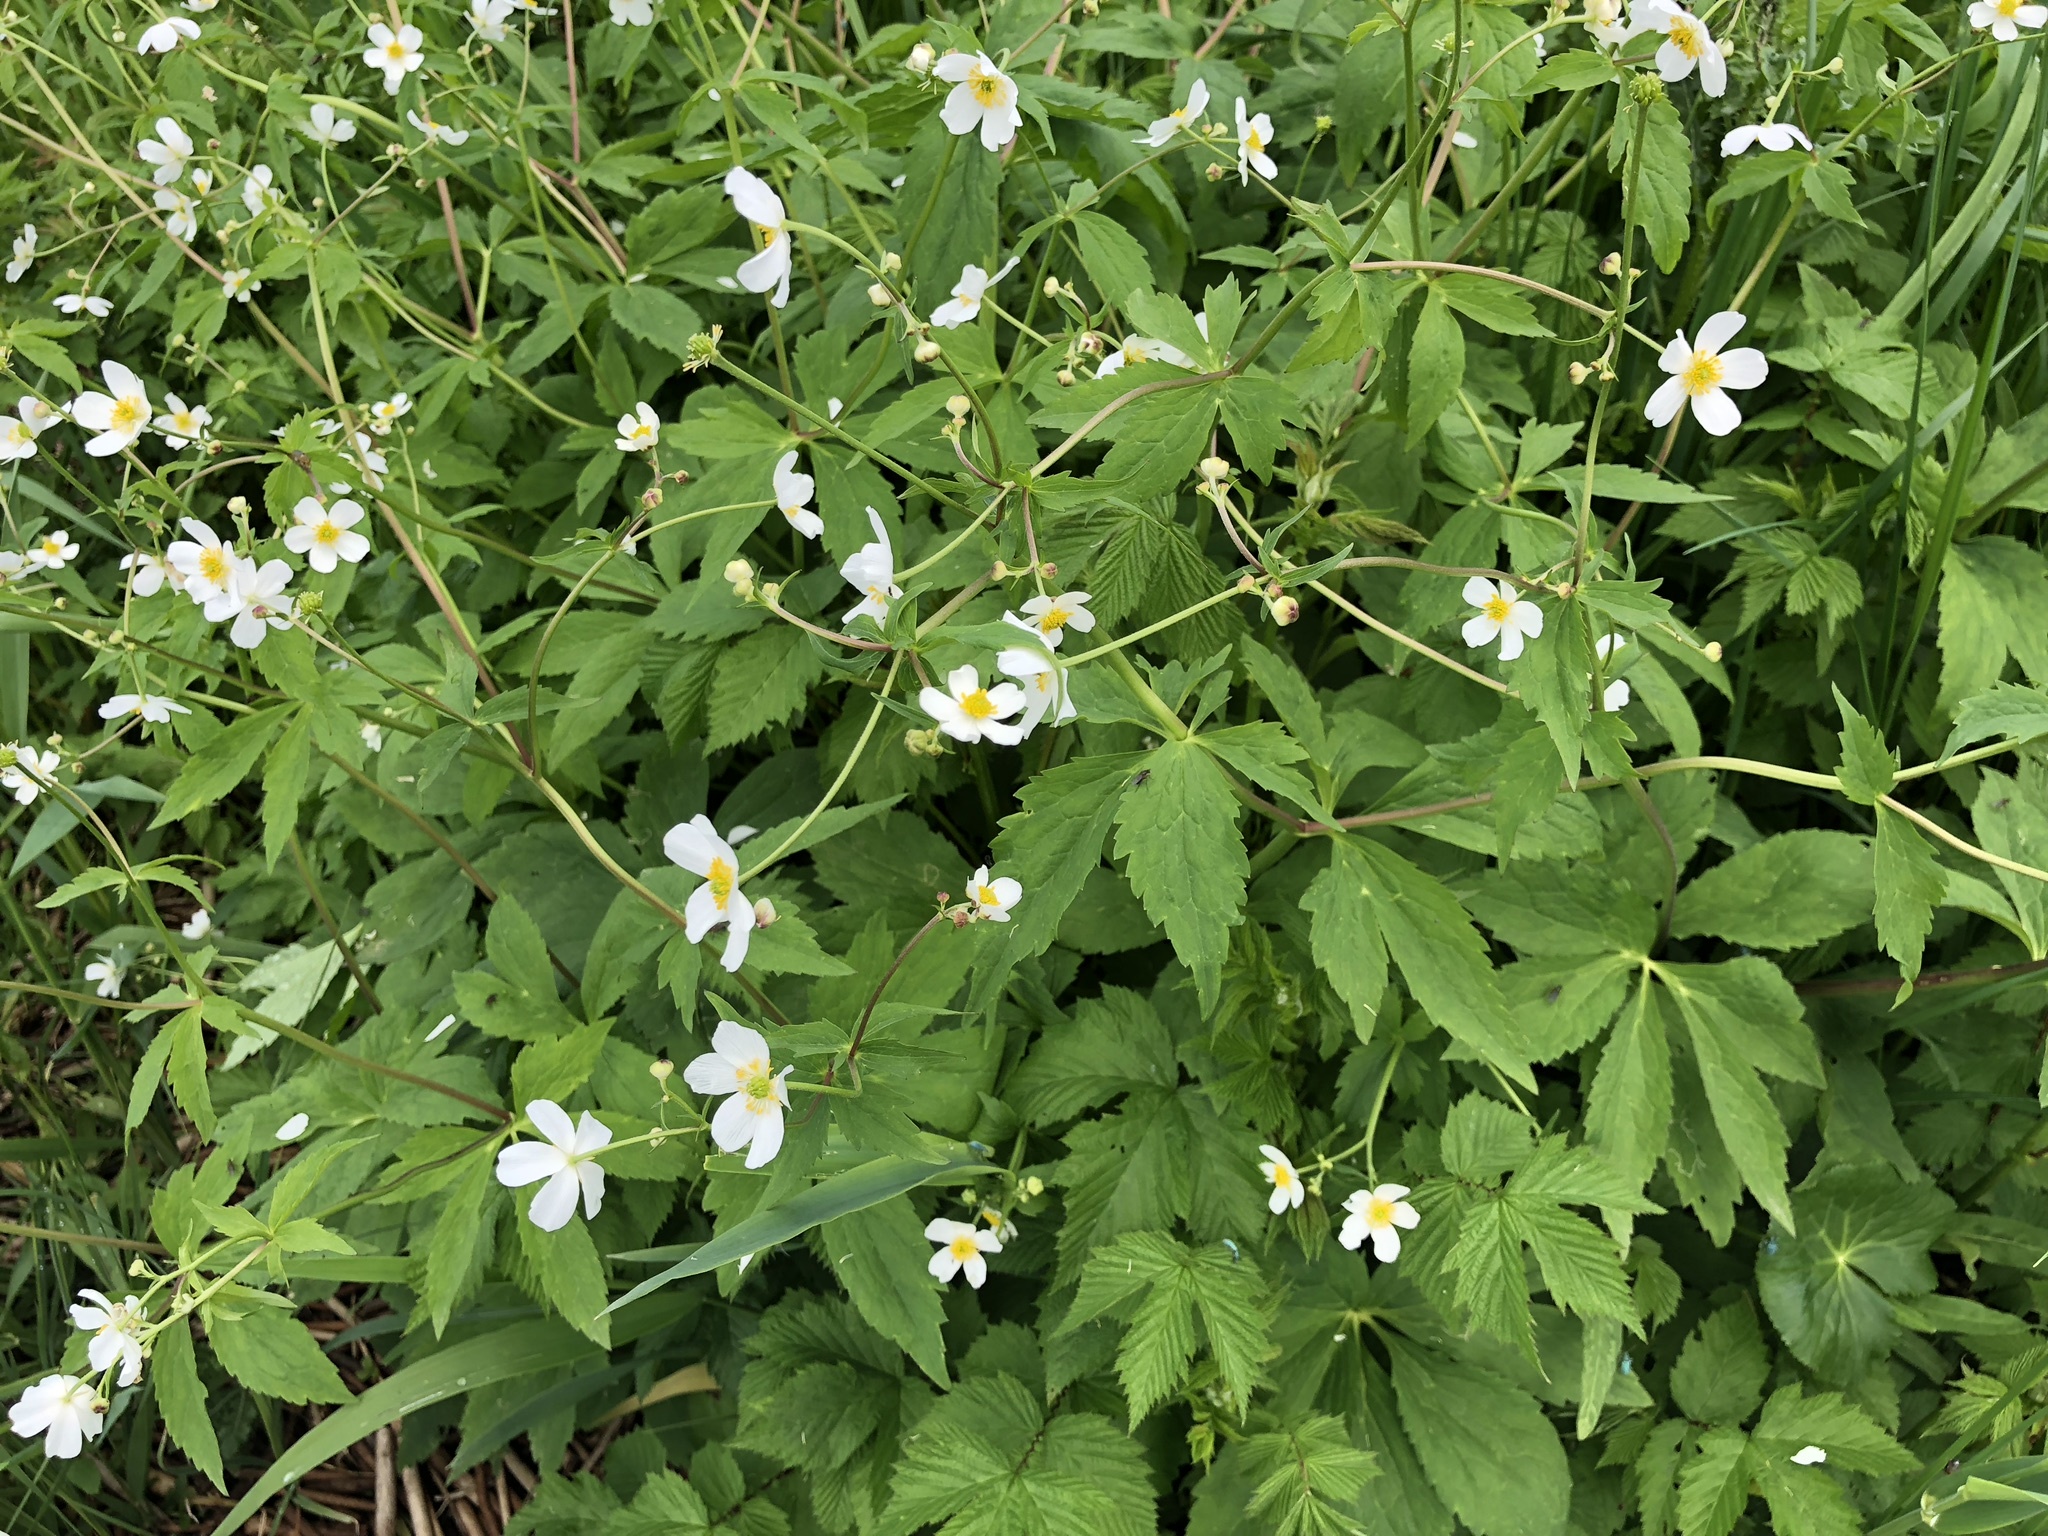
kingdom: Plantae
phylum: Tracheophyta
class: Magnoliopsida
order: Ranunculales
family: Ranunculaceae
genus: Ranunculus
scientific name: Ranunculus aconitifolius
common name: Aconite-leaved buttercup
